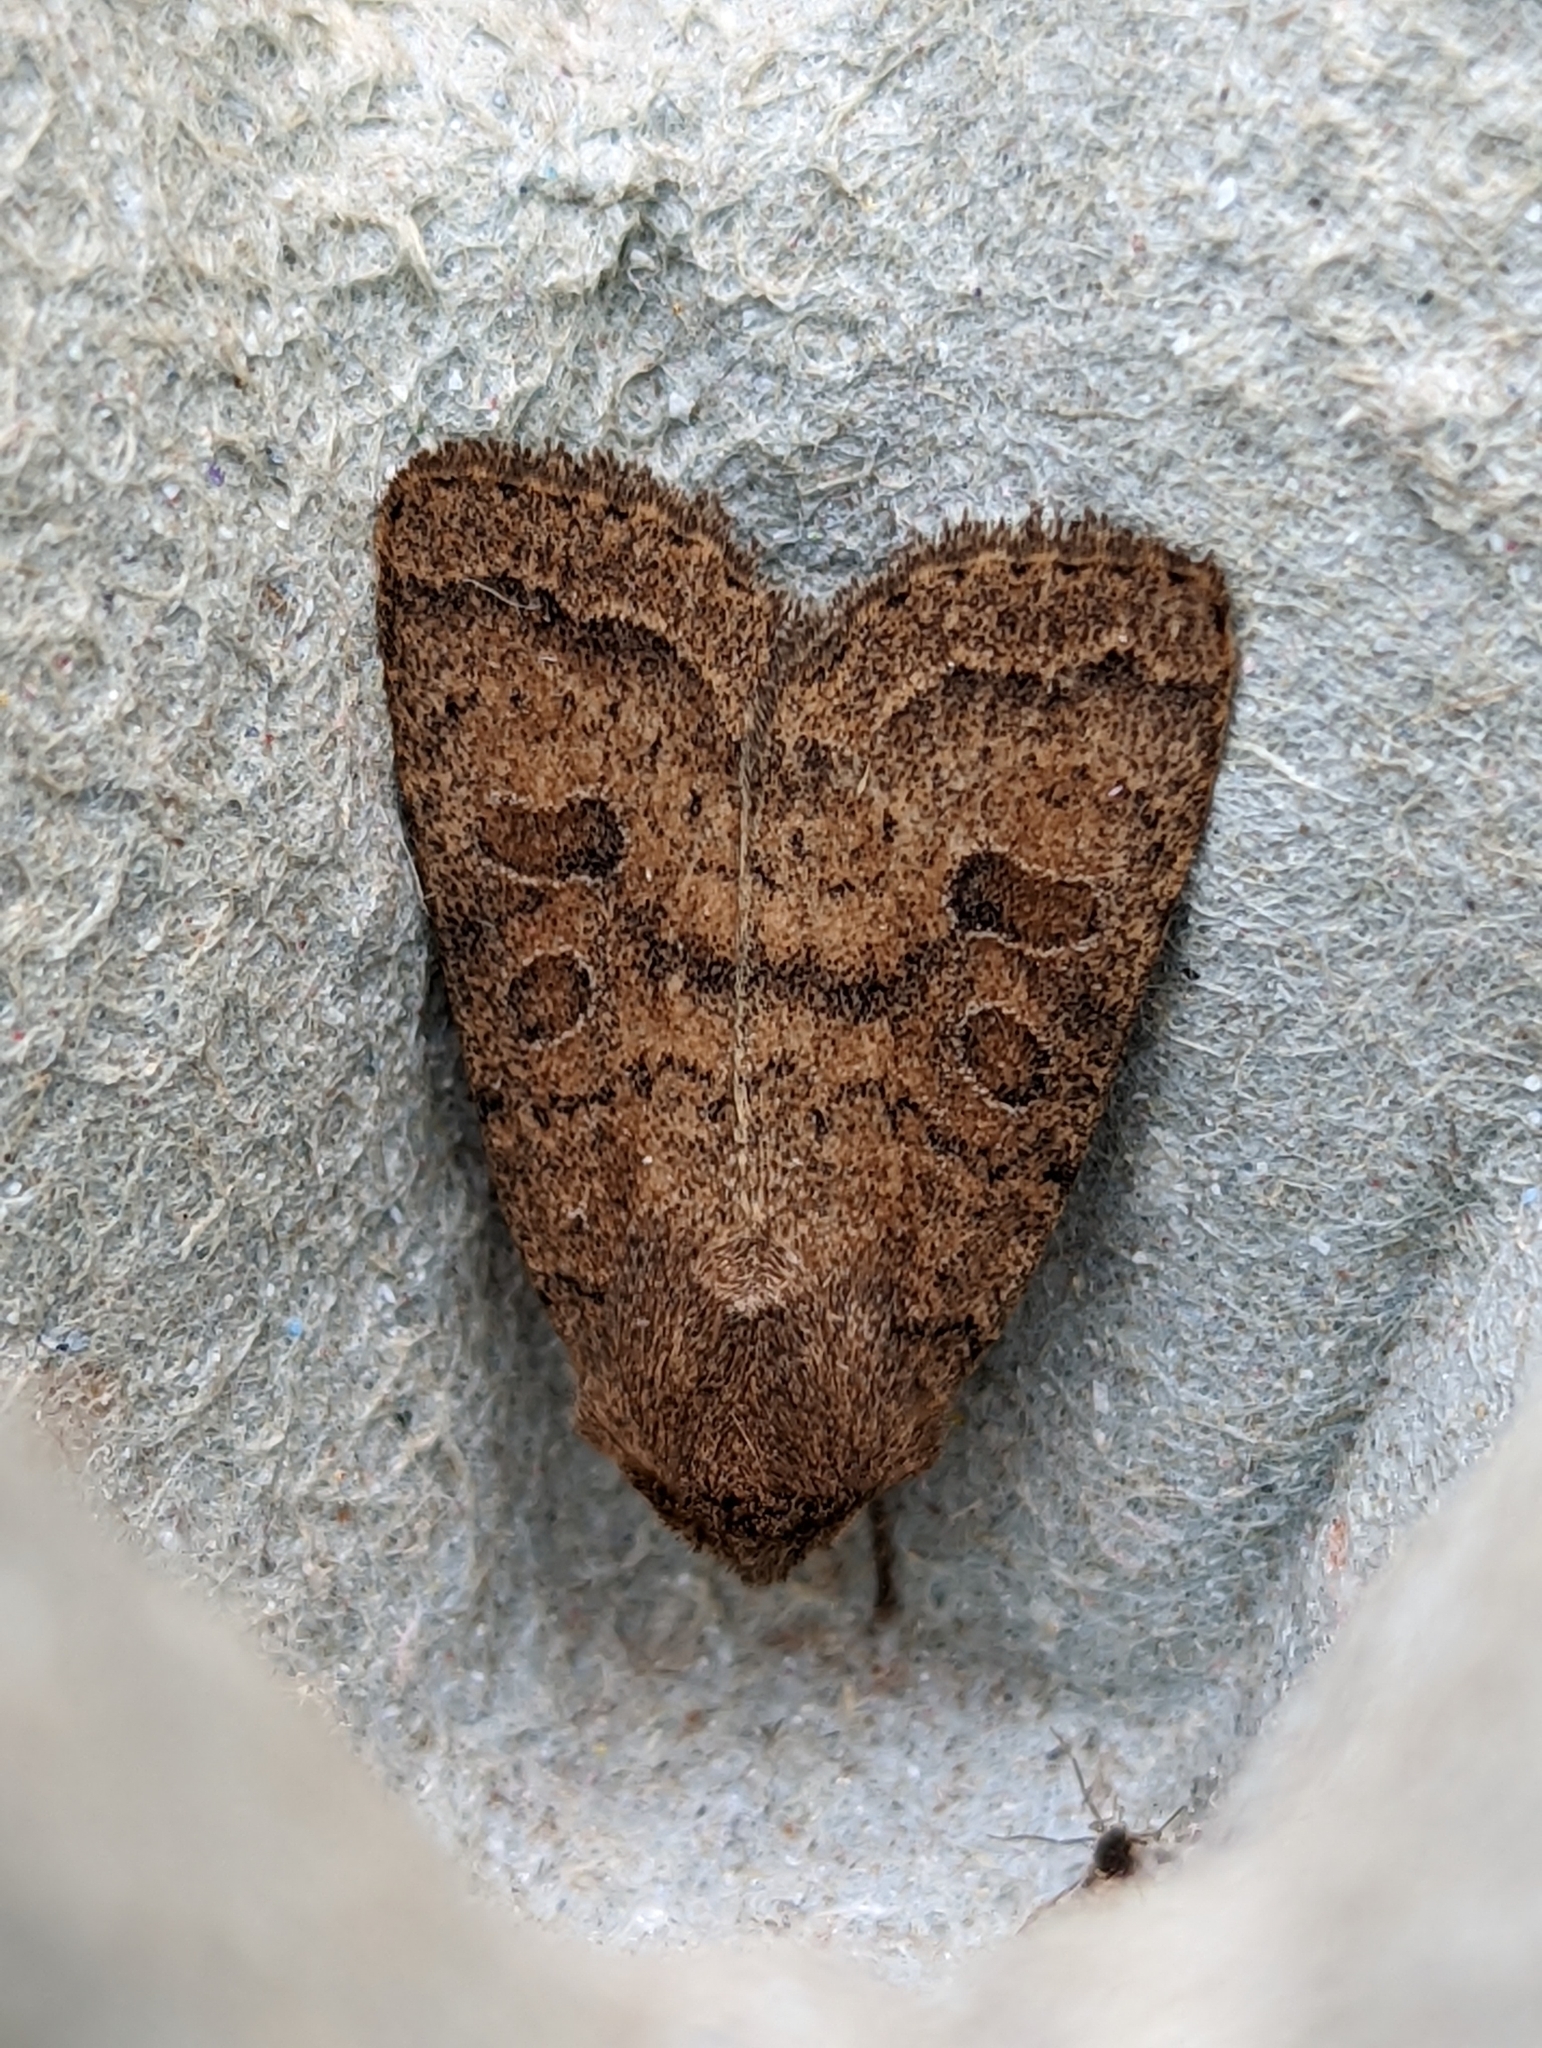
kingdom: Animalia
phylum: Arthropoda
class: Insecta
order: Lepidoptera
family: Noctuidae
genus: Hoplodrina
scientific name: Hoplodrina octogenaria
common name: Uncertain
